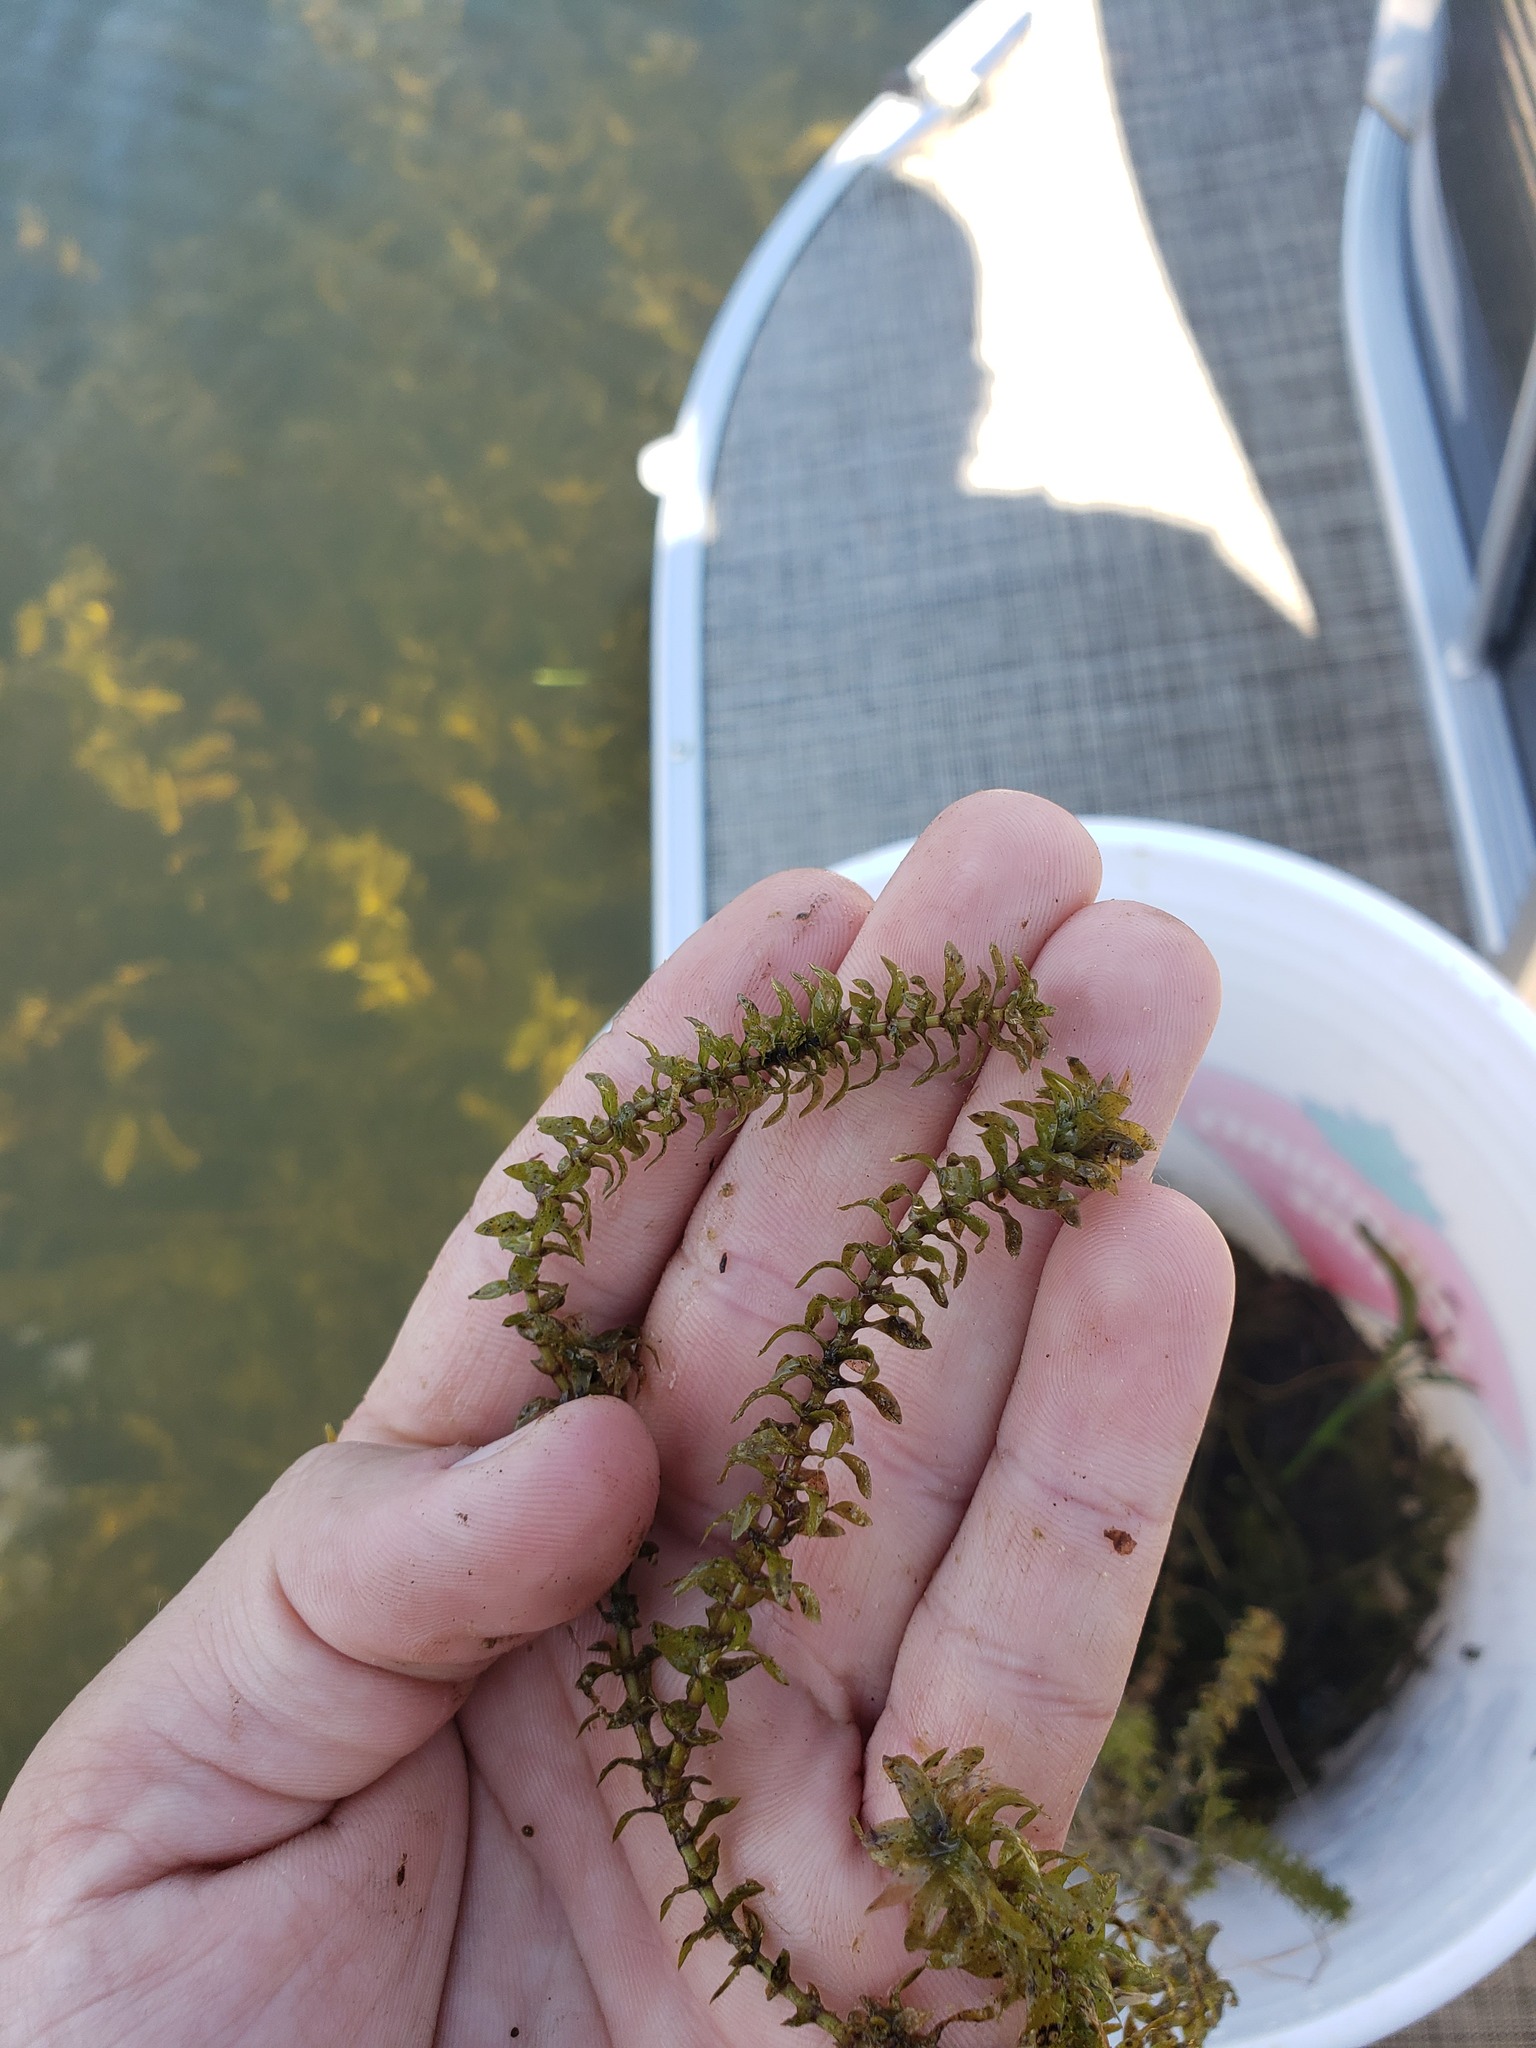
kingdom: Plantae
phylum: Tracheophyta
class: Liliopsida
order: Alismatales
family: Hydrocharitaceae
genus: Elodea
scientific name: Elodea canadensis
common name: Canadian waterweed
